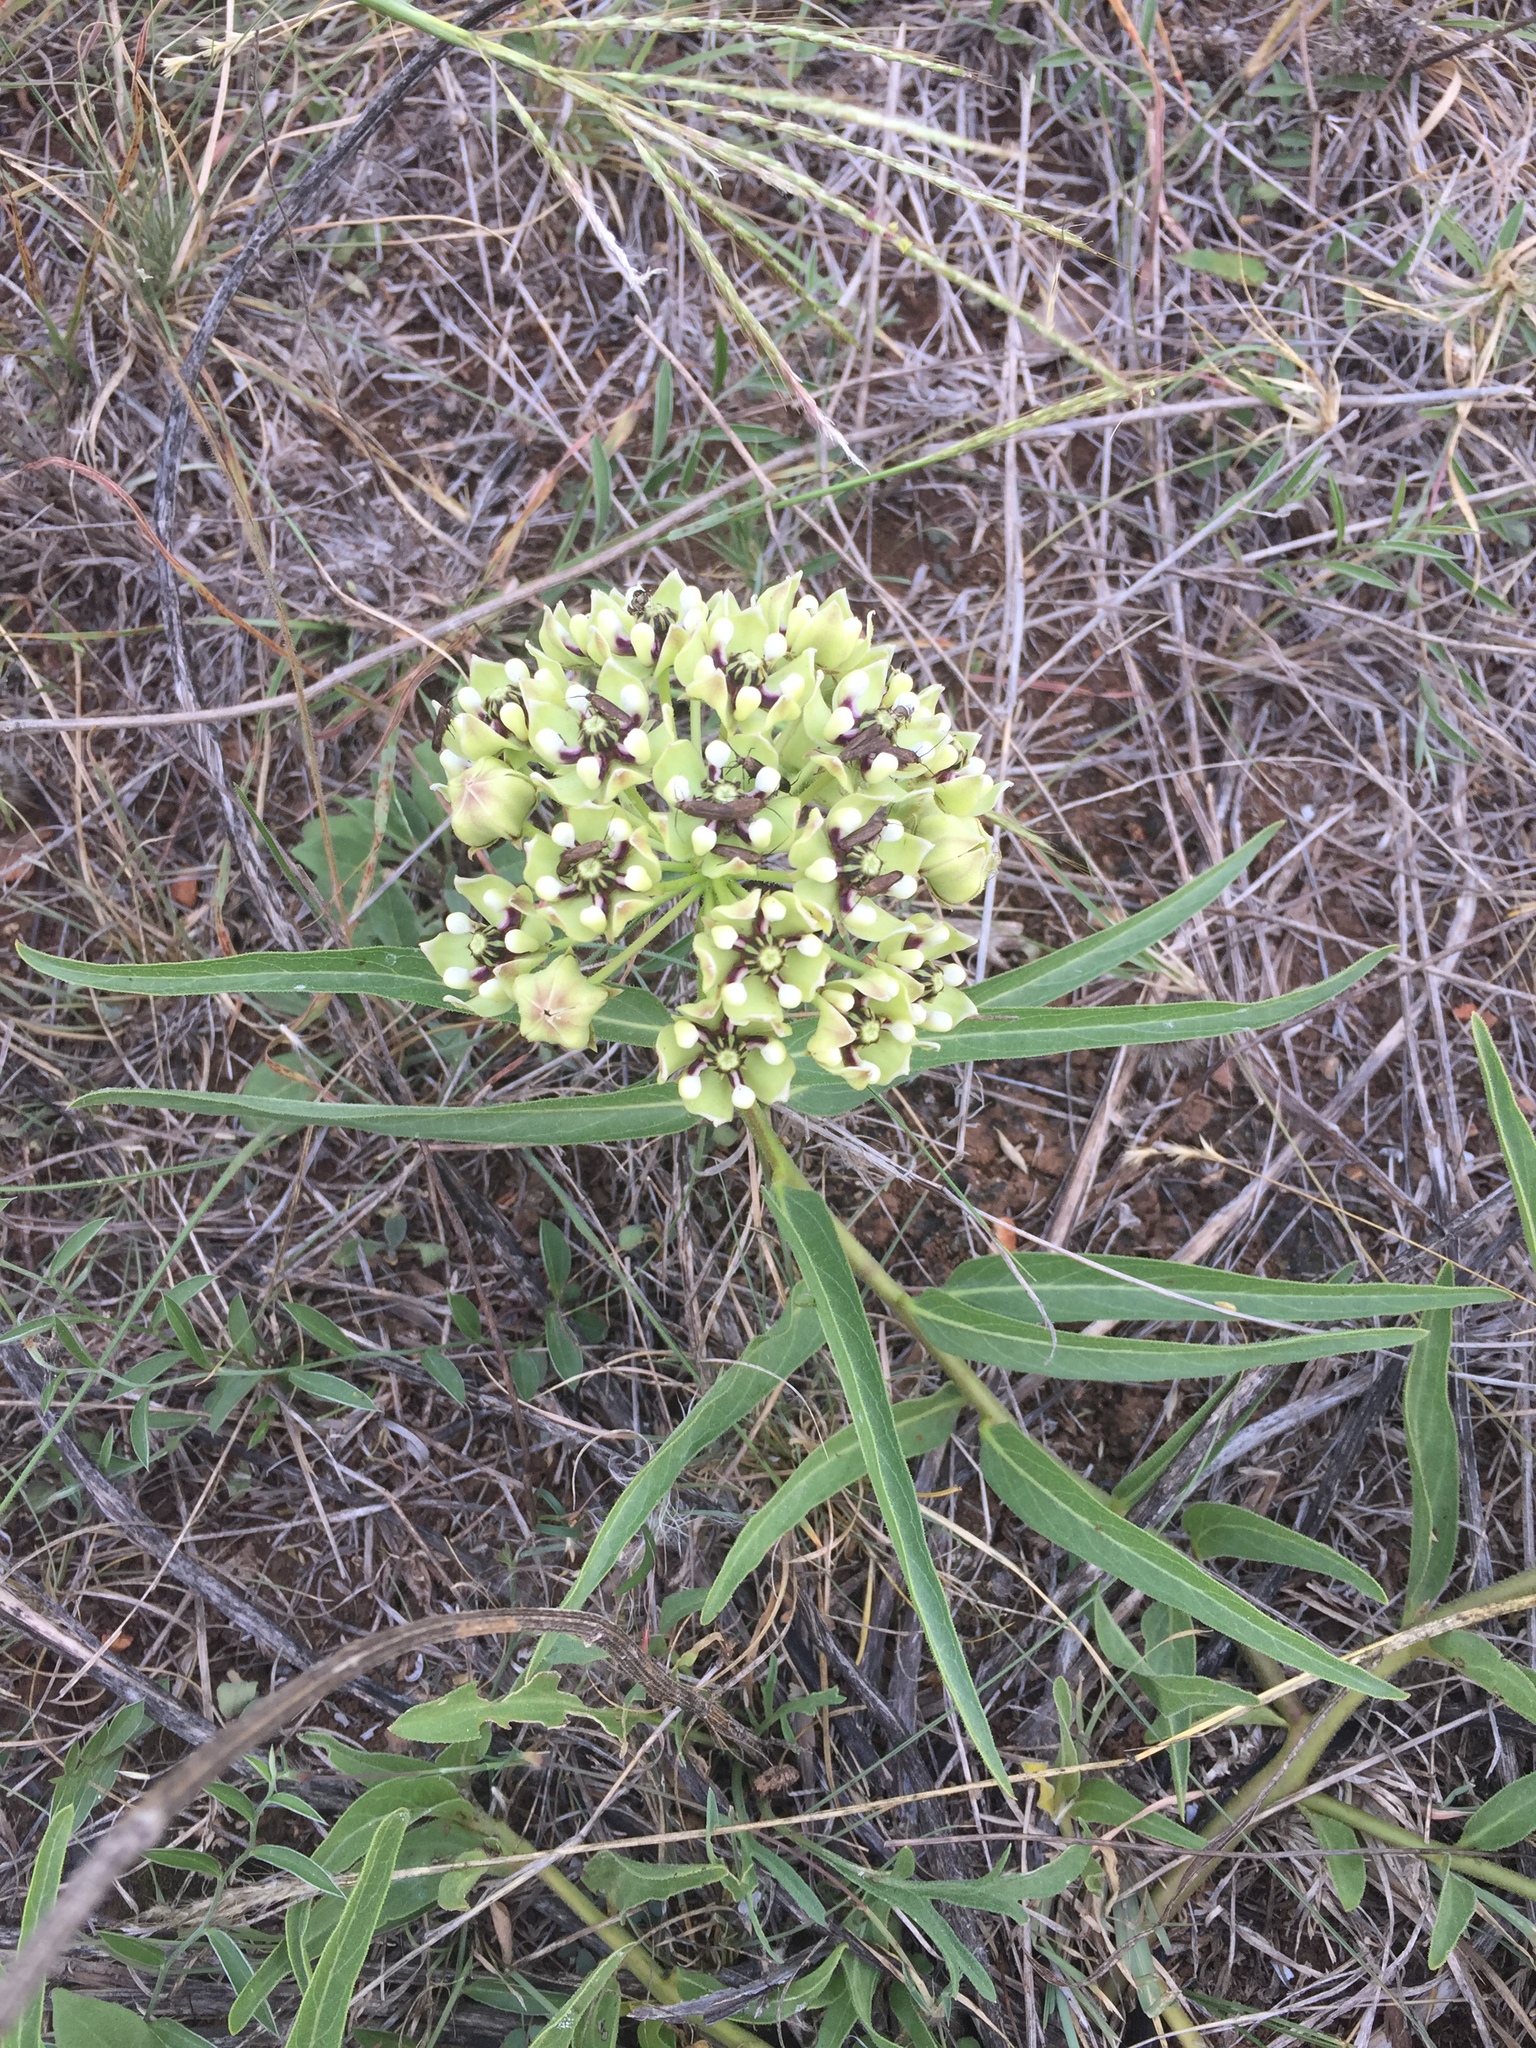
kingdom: Plantae
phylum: Tracheophyta
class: Magnoliopsida
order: Gentianales
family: Apocynaceae
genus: Asclepias
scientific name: Asclepias asperula
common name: Antelope horns
